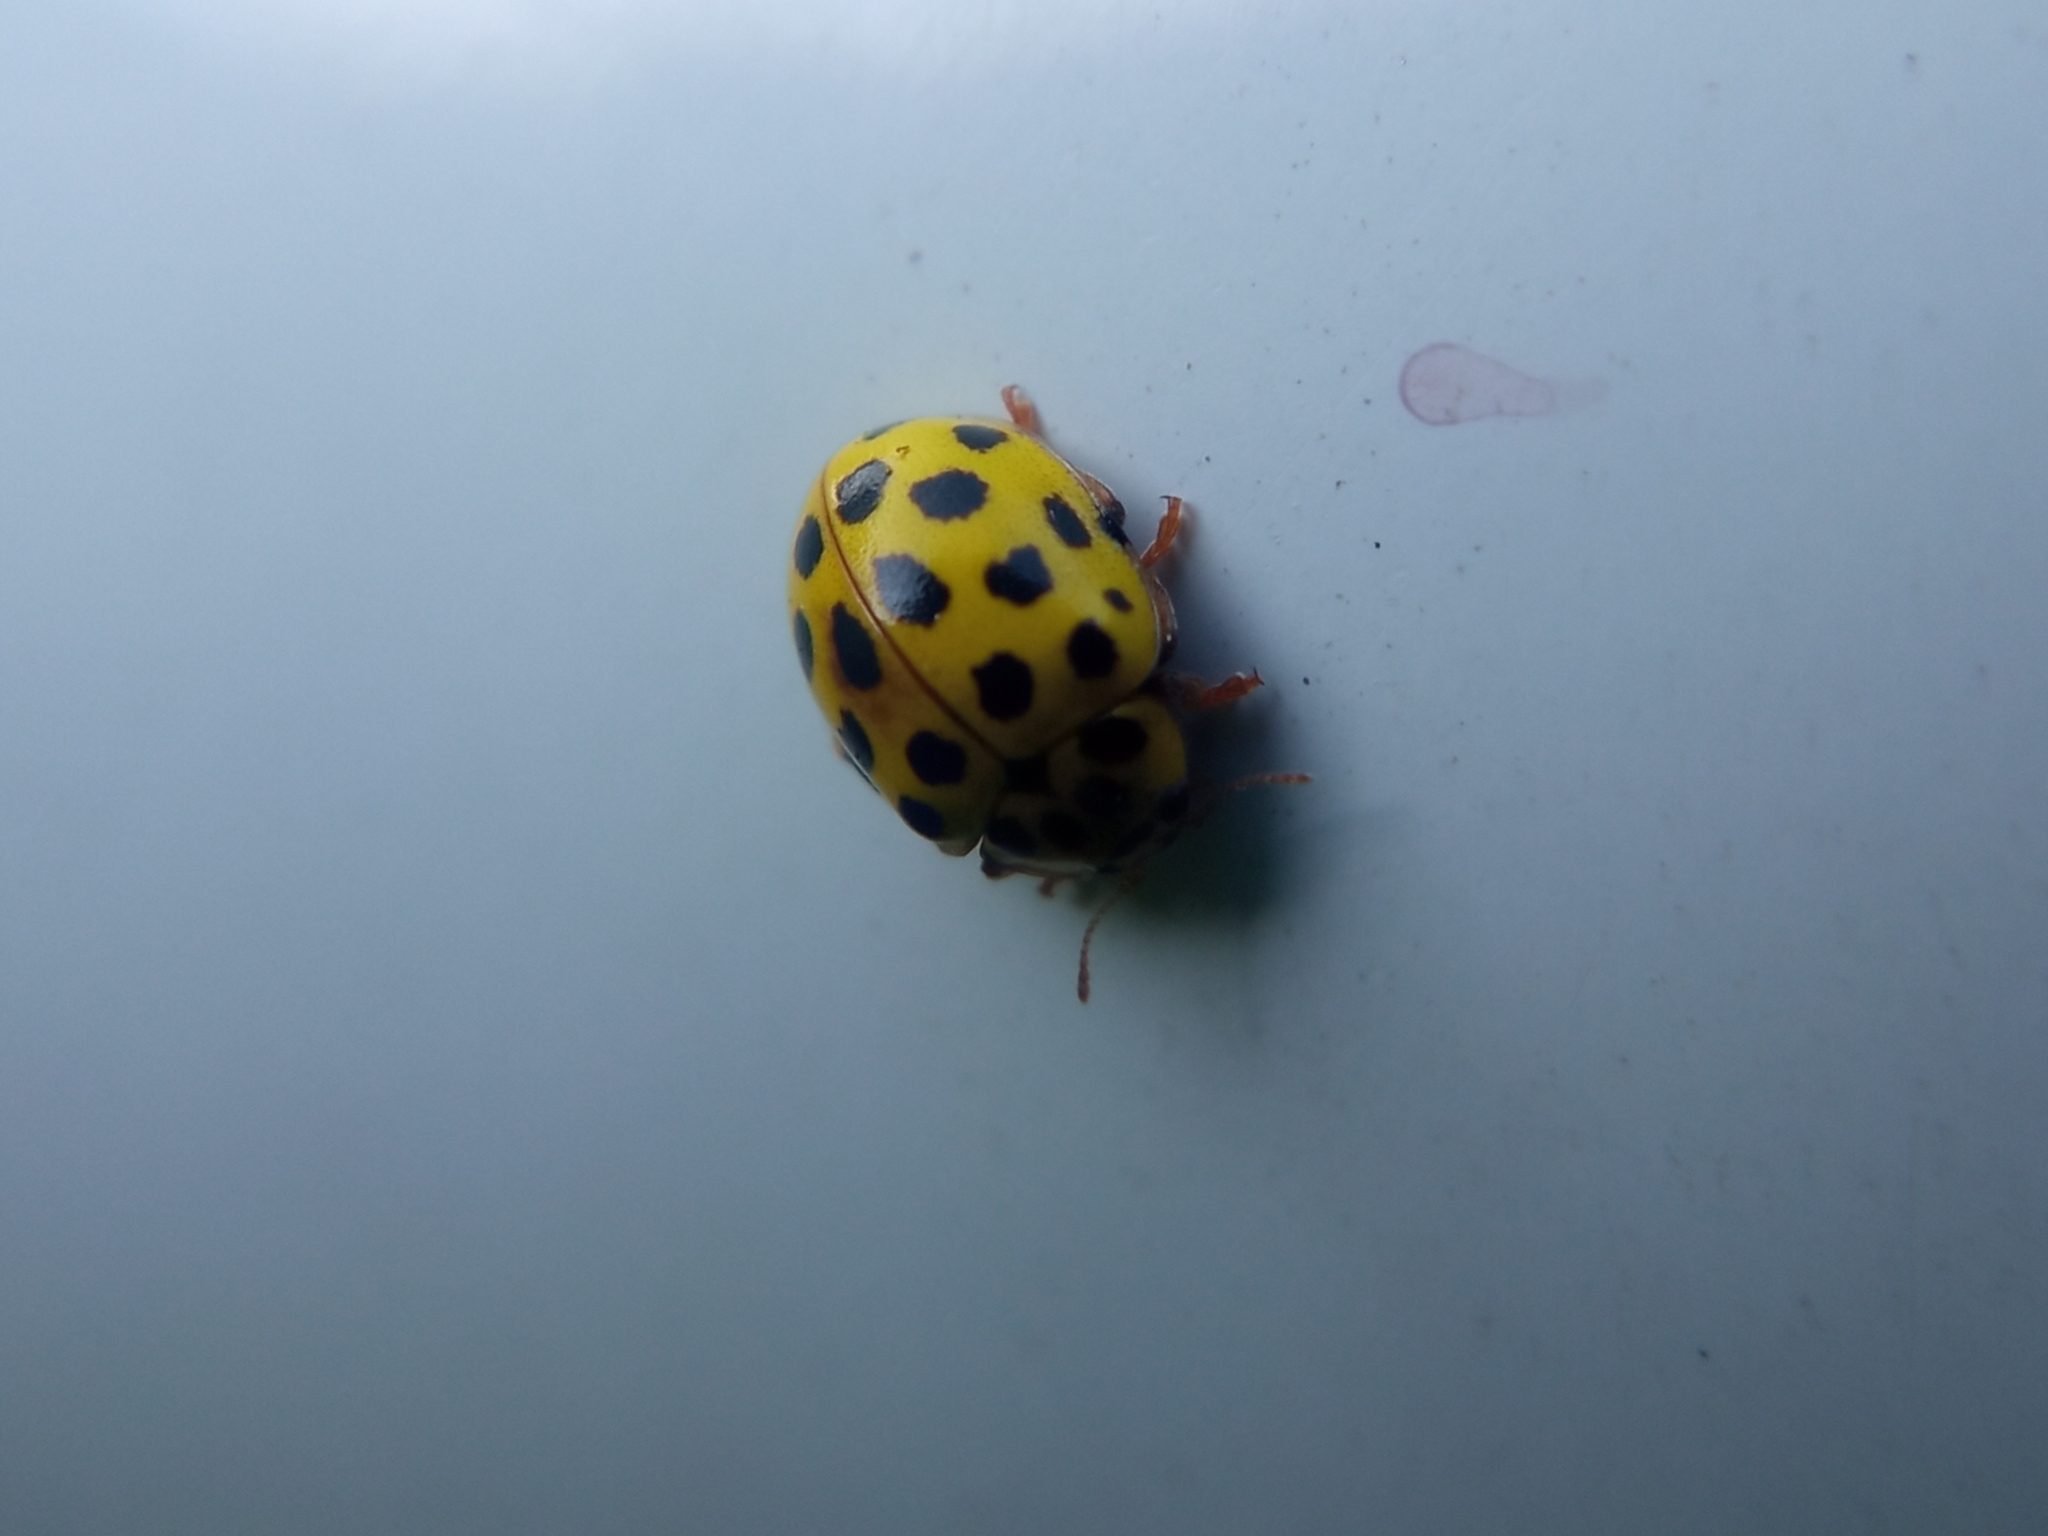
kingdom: Animalia
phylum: Arthropoda
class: Insecta
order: Coleoptera
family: Coccinellidae
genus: Psyllobora
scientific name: Psyllobora vigintiduopunctata
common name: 22-spot ladybird
